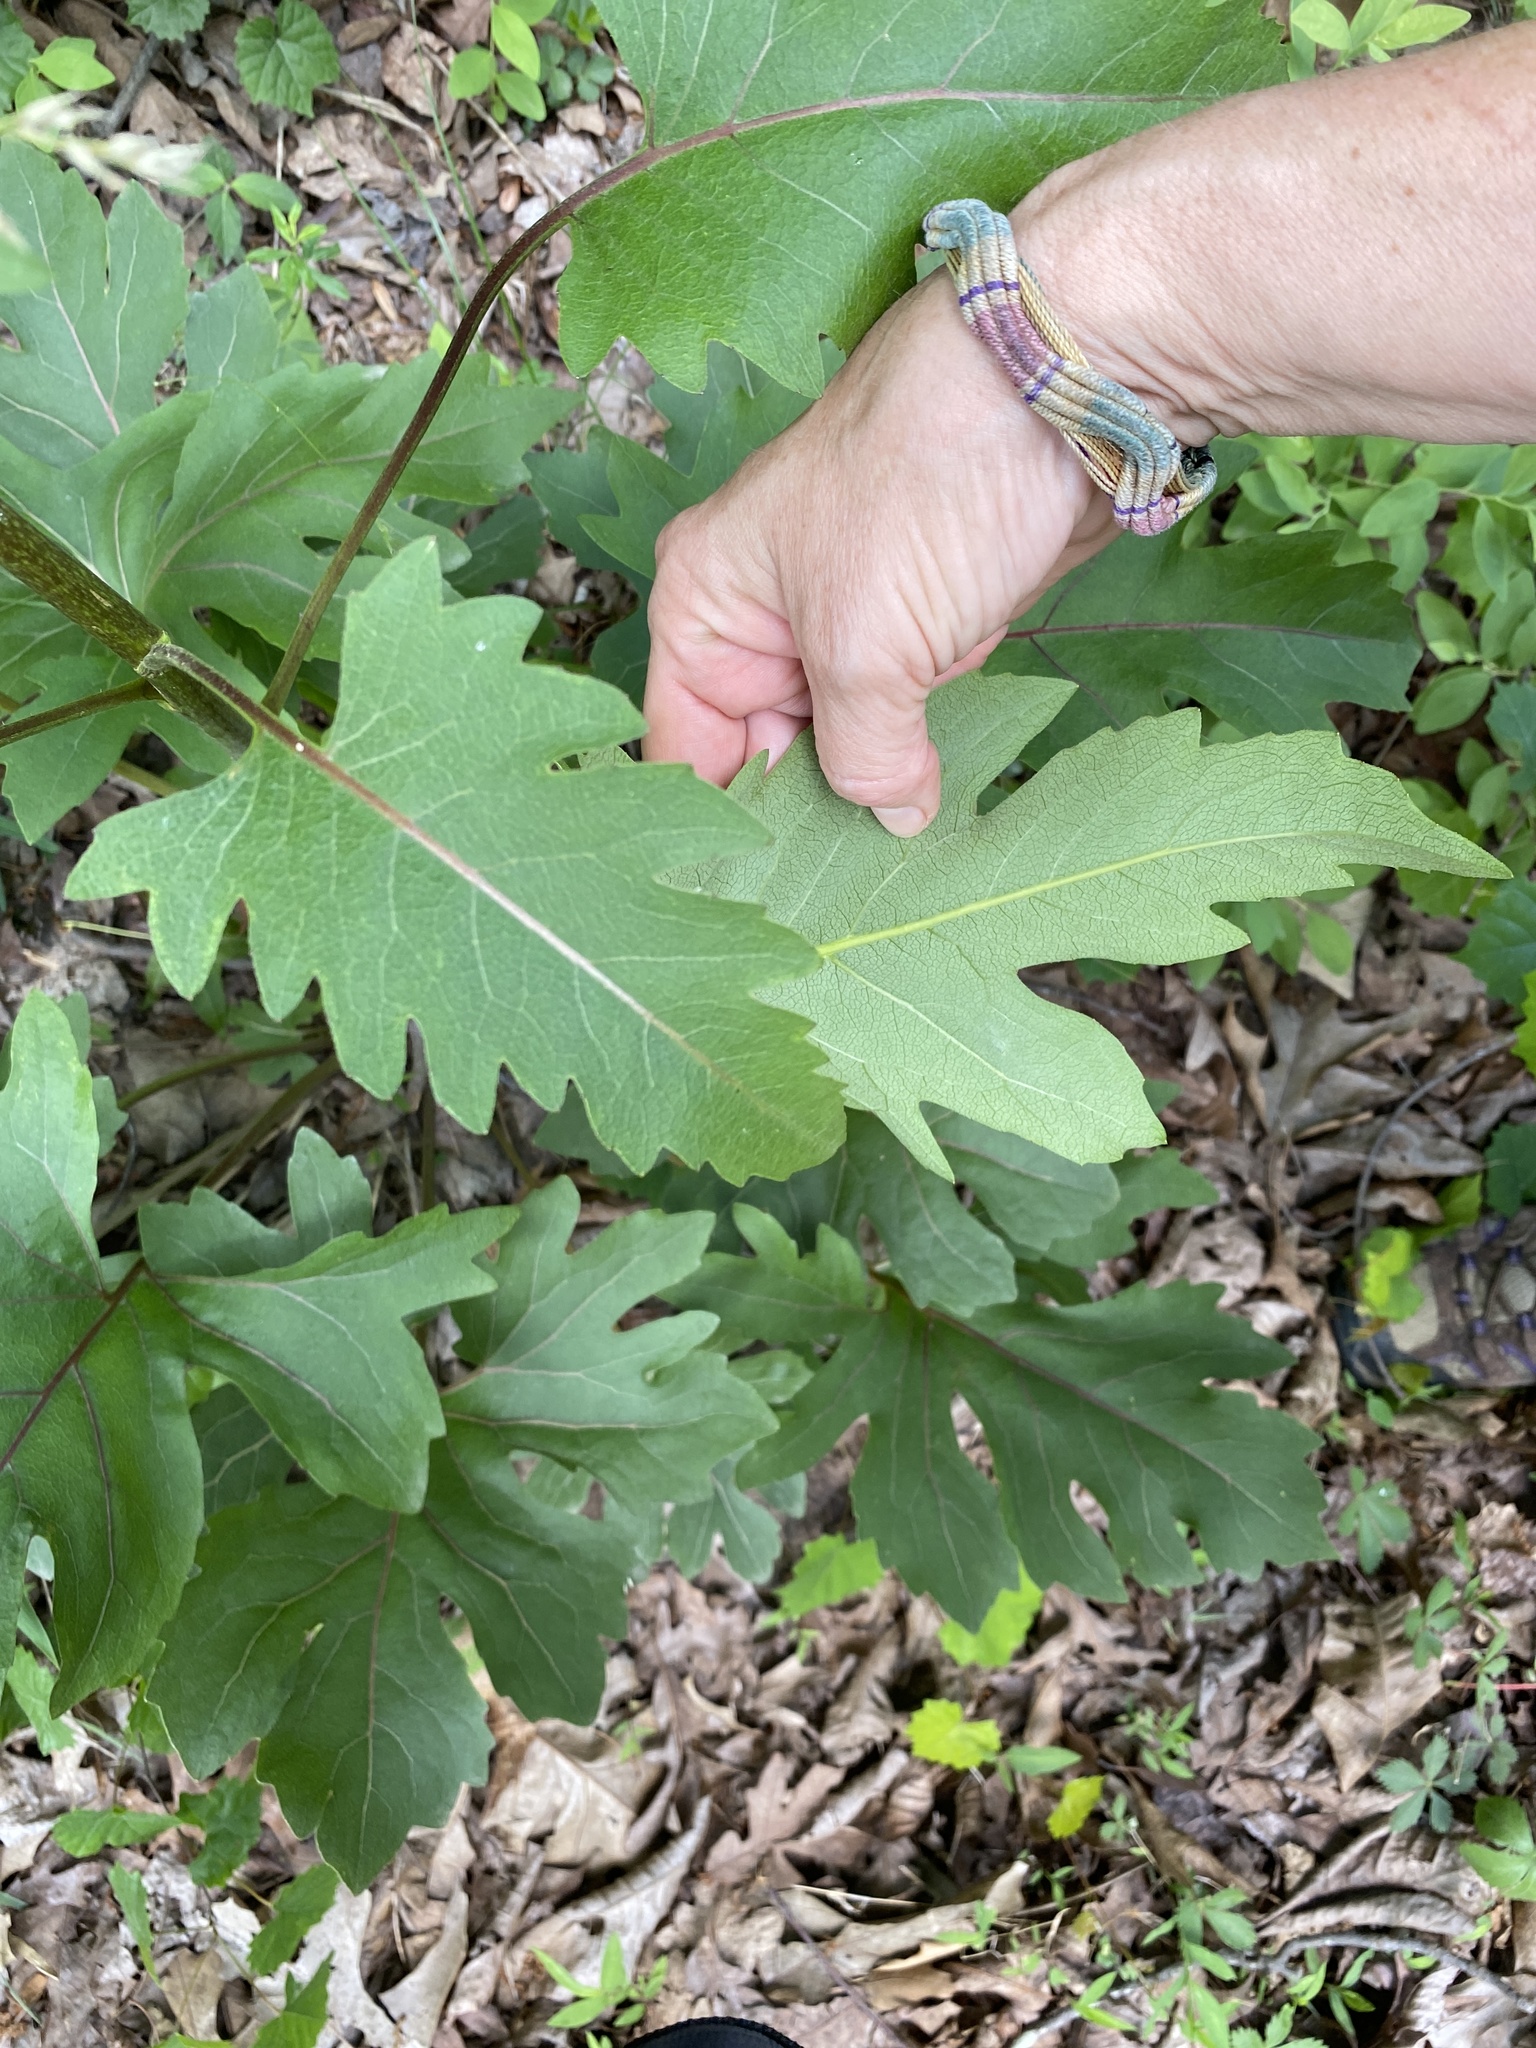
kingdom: Plantae
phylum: Tracheophyta
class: Magnoliopsida
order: Asterales
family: Asteraceae
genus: Silphium
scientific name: Silphium compositum
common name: Lesser basal-leaf rosinweed
